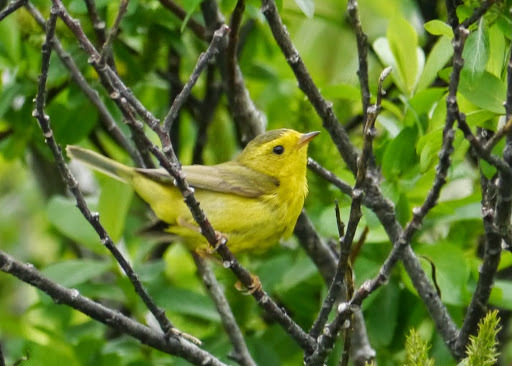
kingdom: Animalia
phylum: Chordata
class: Aves
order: Passeriformes
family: Parulidae
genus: Cardellina
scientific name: Cardellina pusilla
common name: Wilson's warbler
